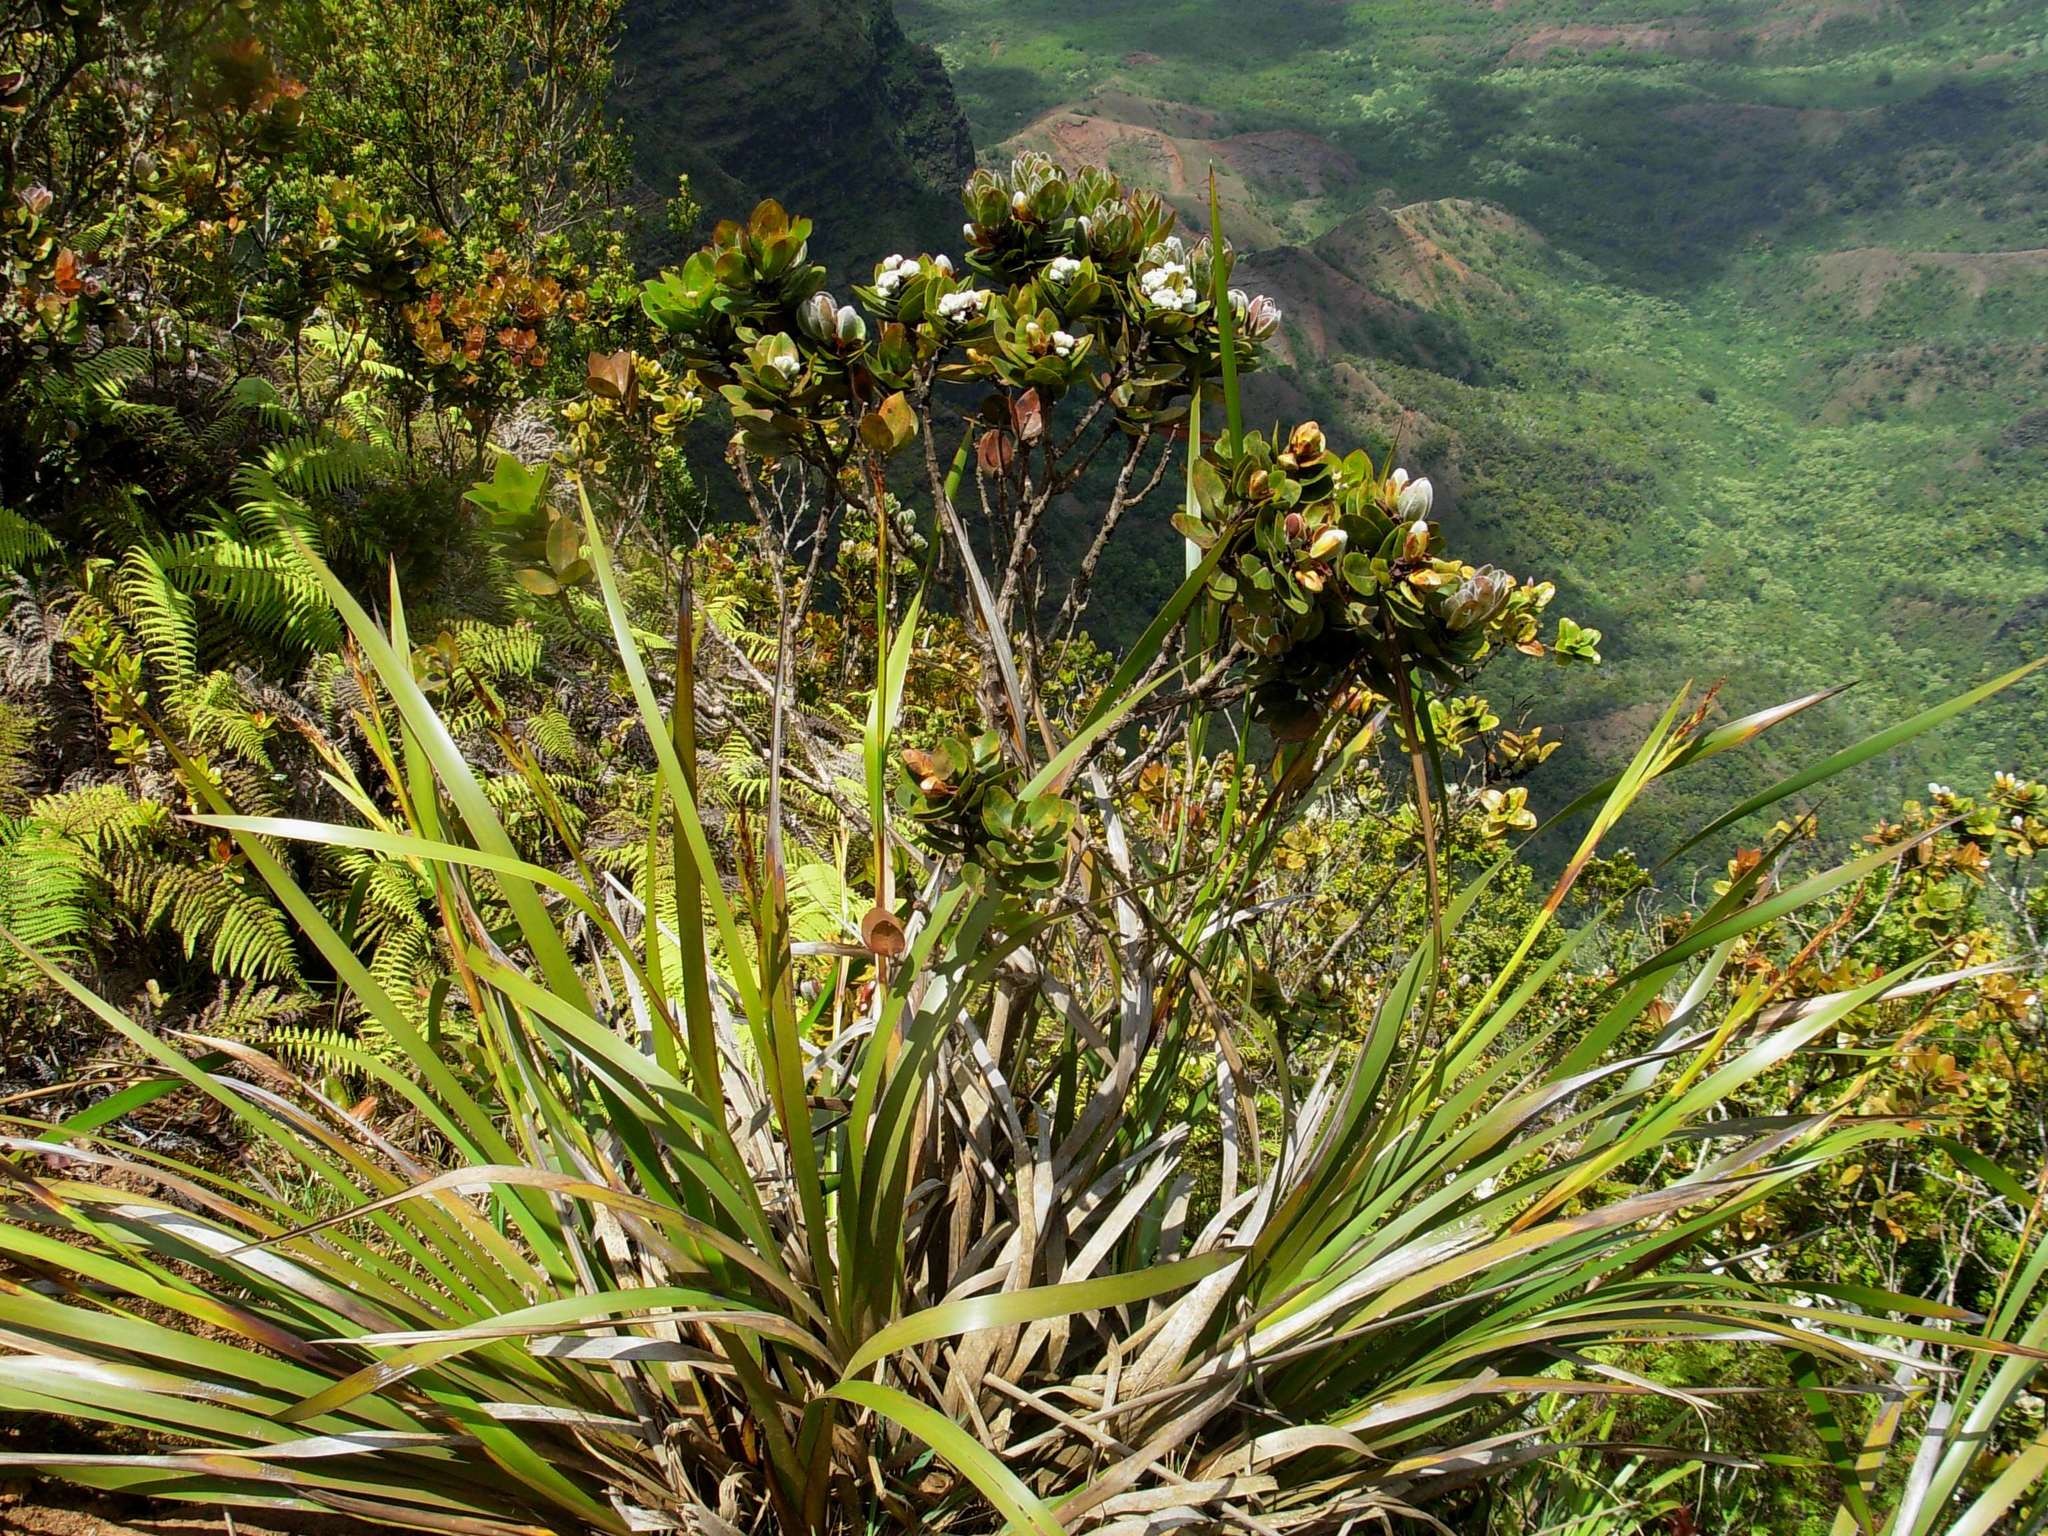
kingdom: Plantae
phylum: Tracheophyta
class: Liliopsida
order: Poales
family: Cyperaceae
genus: Machaerina
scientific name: Machaerina angustifolia
